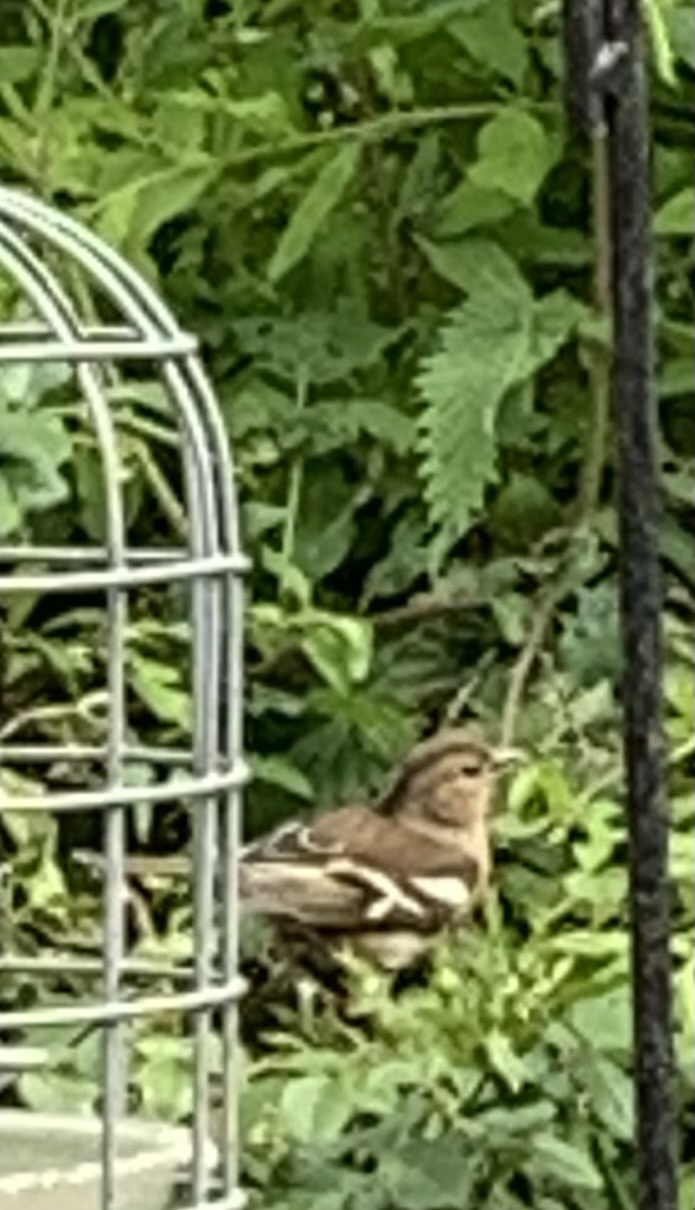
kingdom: Animalia
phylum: Chordata
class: Aves
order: Passeriformes
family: Fringillidae
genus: Fringilla
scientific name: Fringilla coelebs
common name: Common chaffinch
